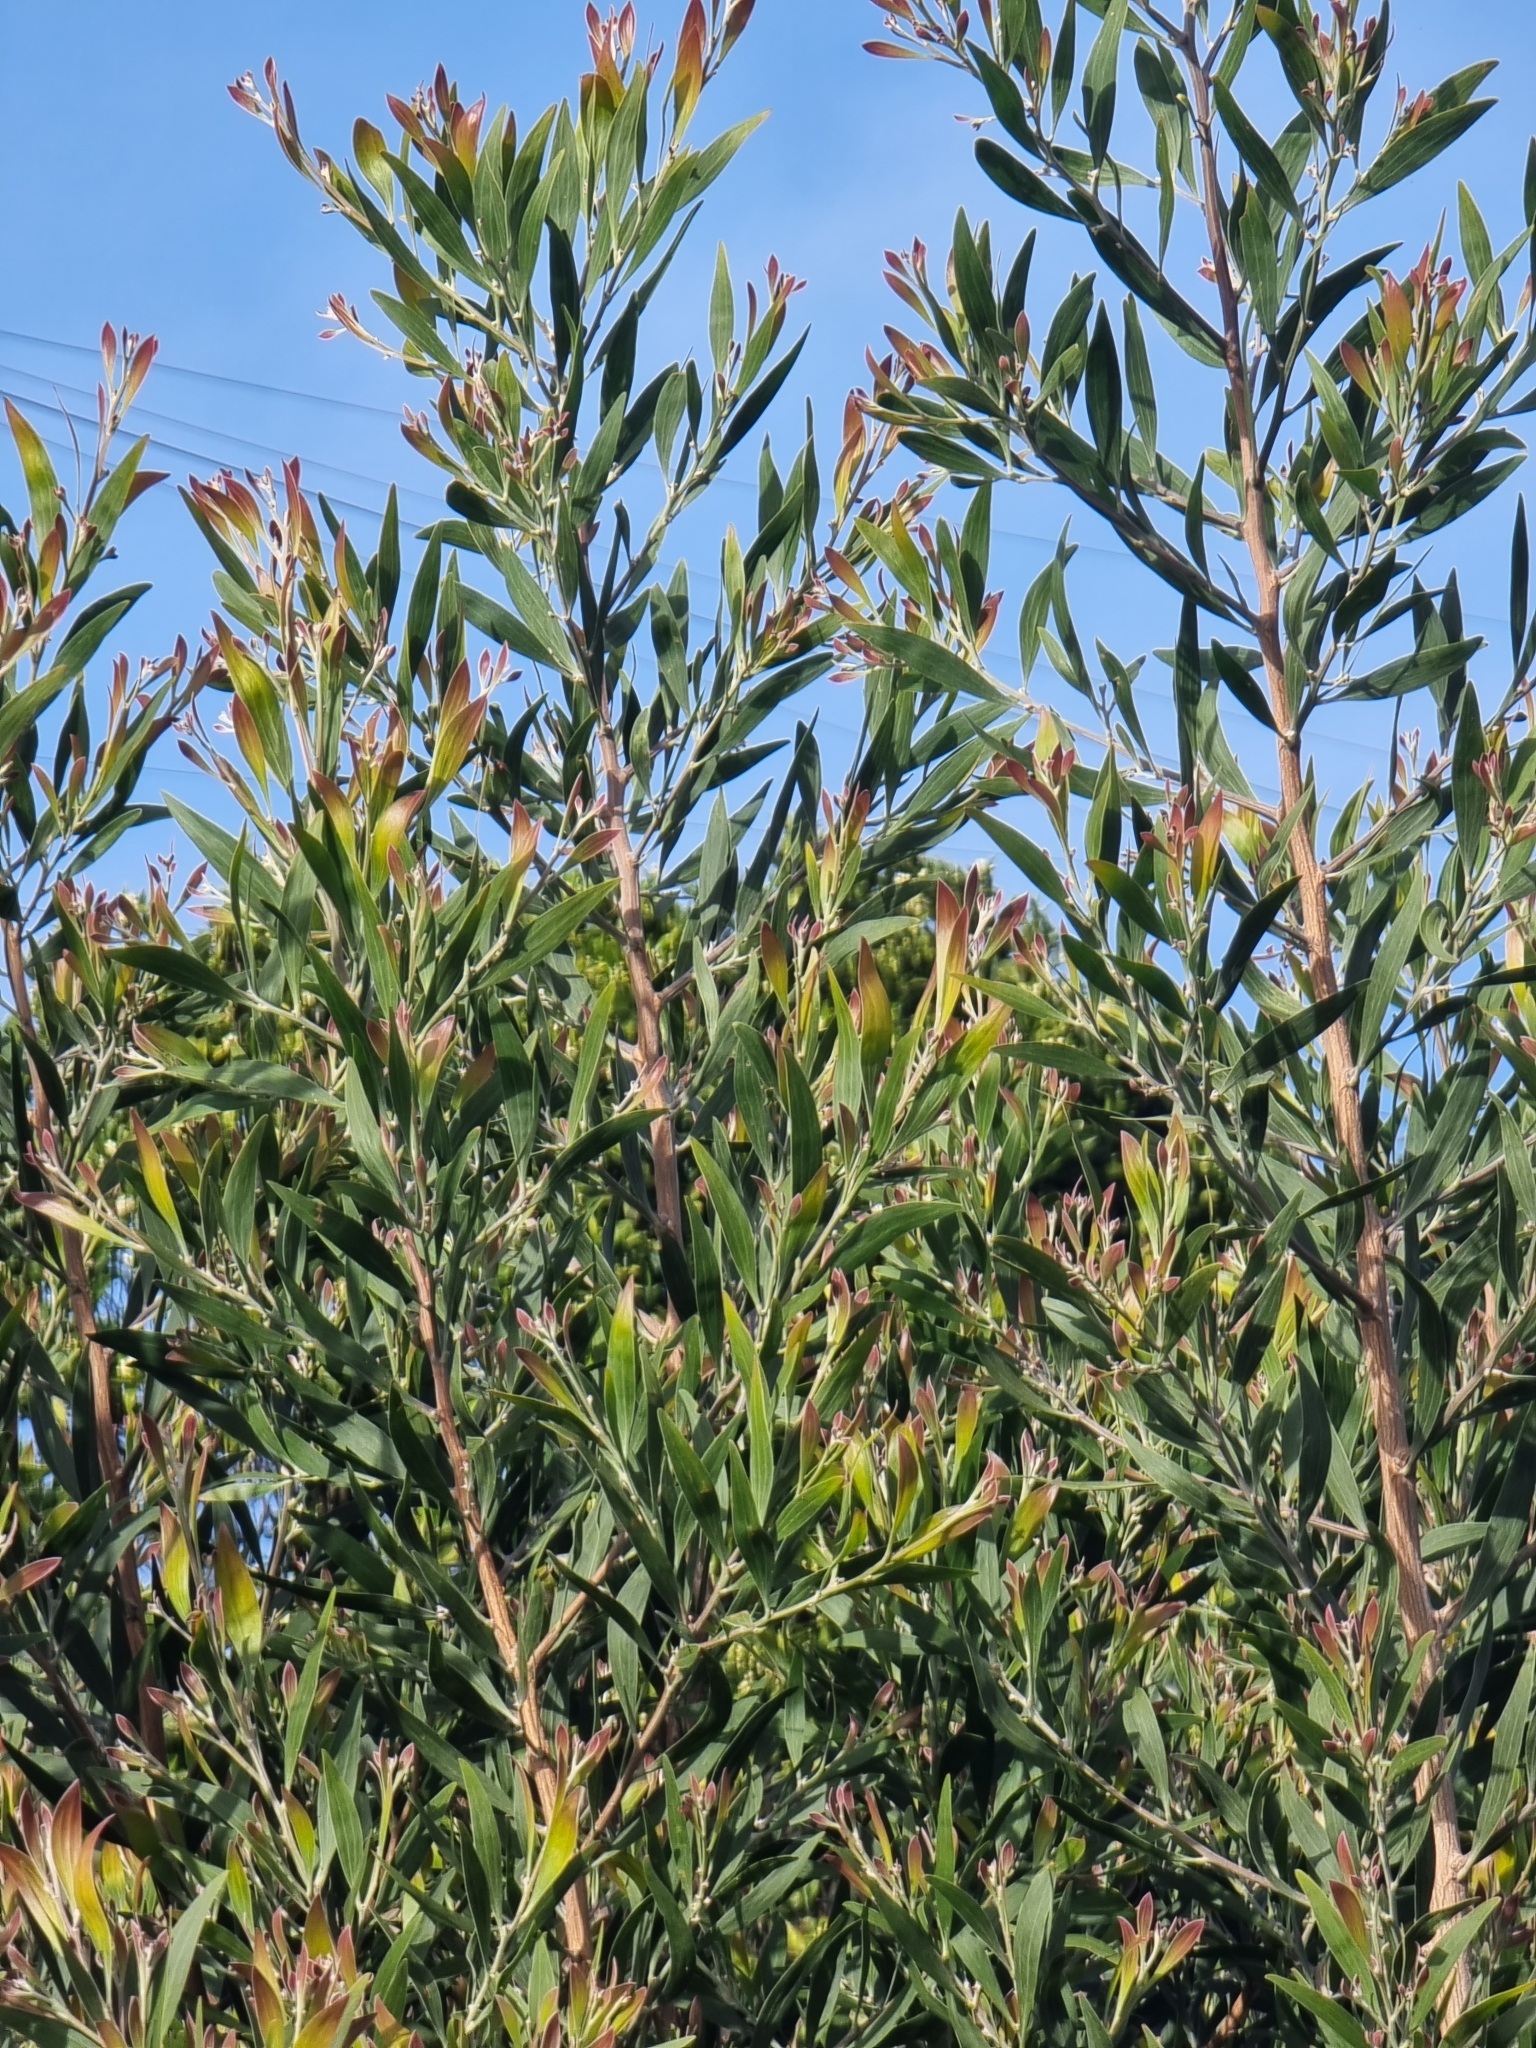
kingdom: Plantae
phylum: Tracheophyta
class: Magnoliopsida
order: Fabales
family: Fabaceae
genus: Acacia
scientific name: Acacia melanoxylon
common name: Blackwood
